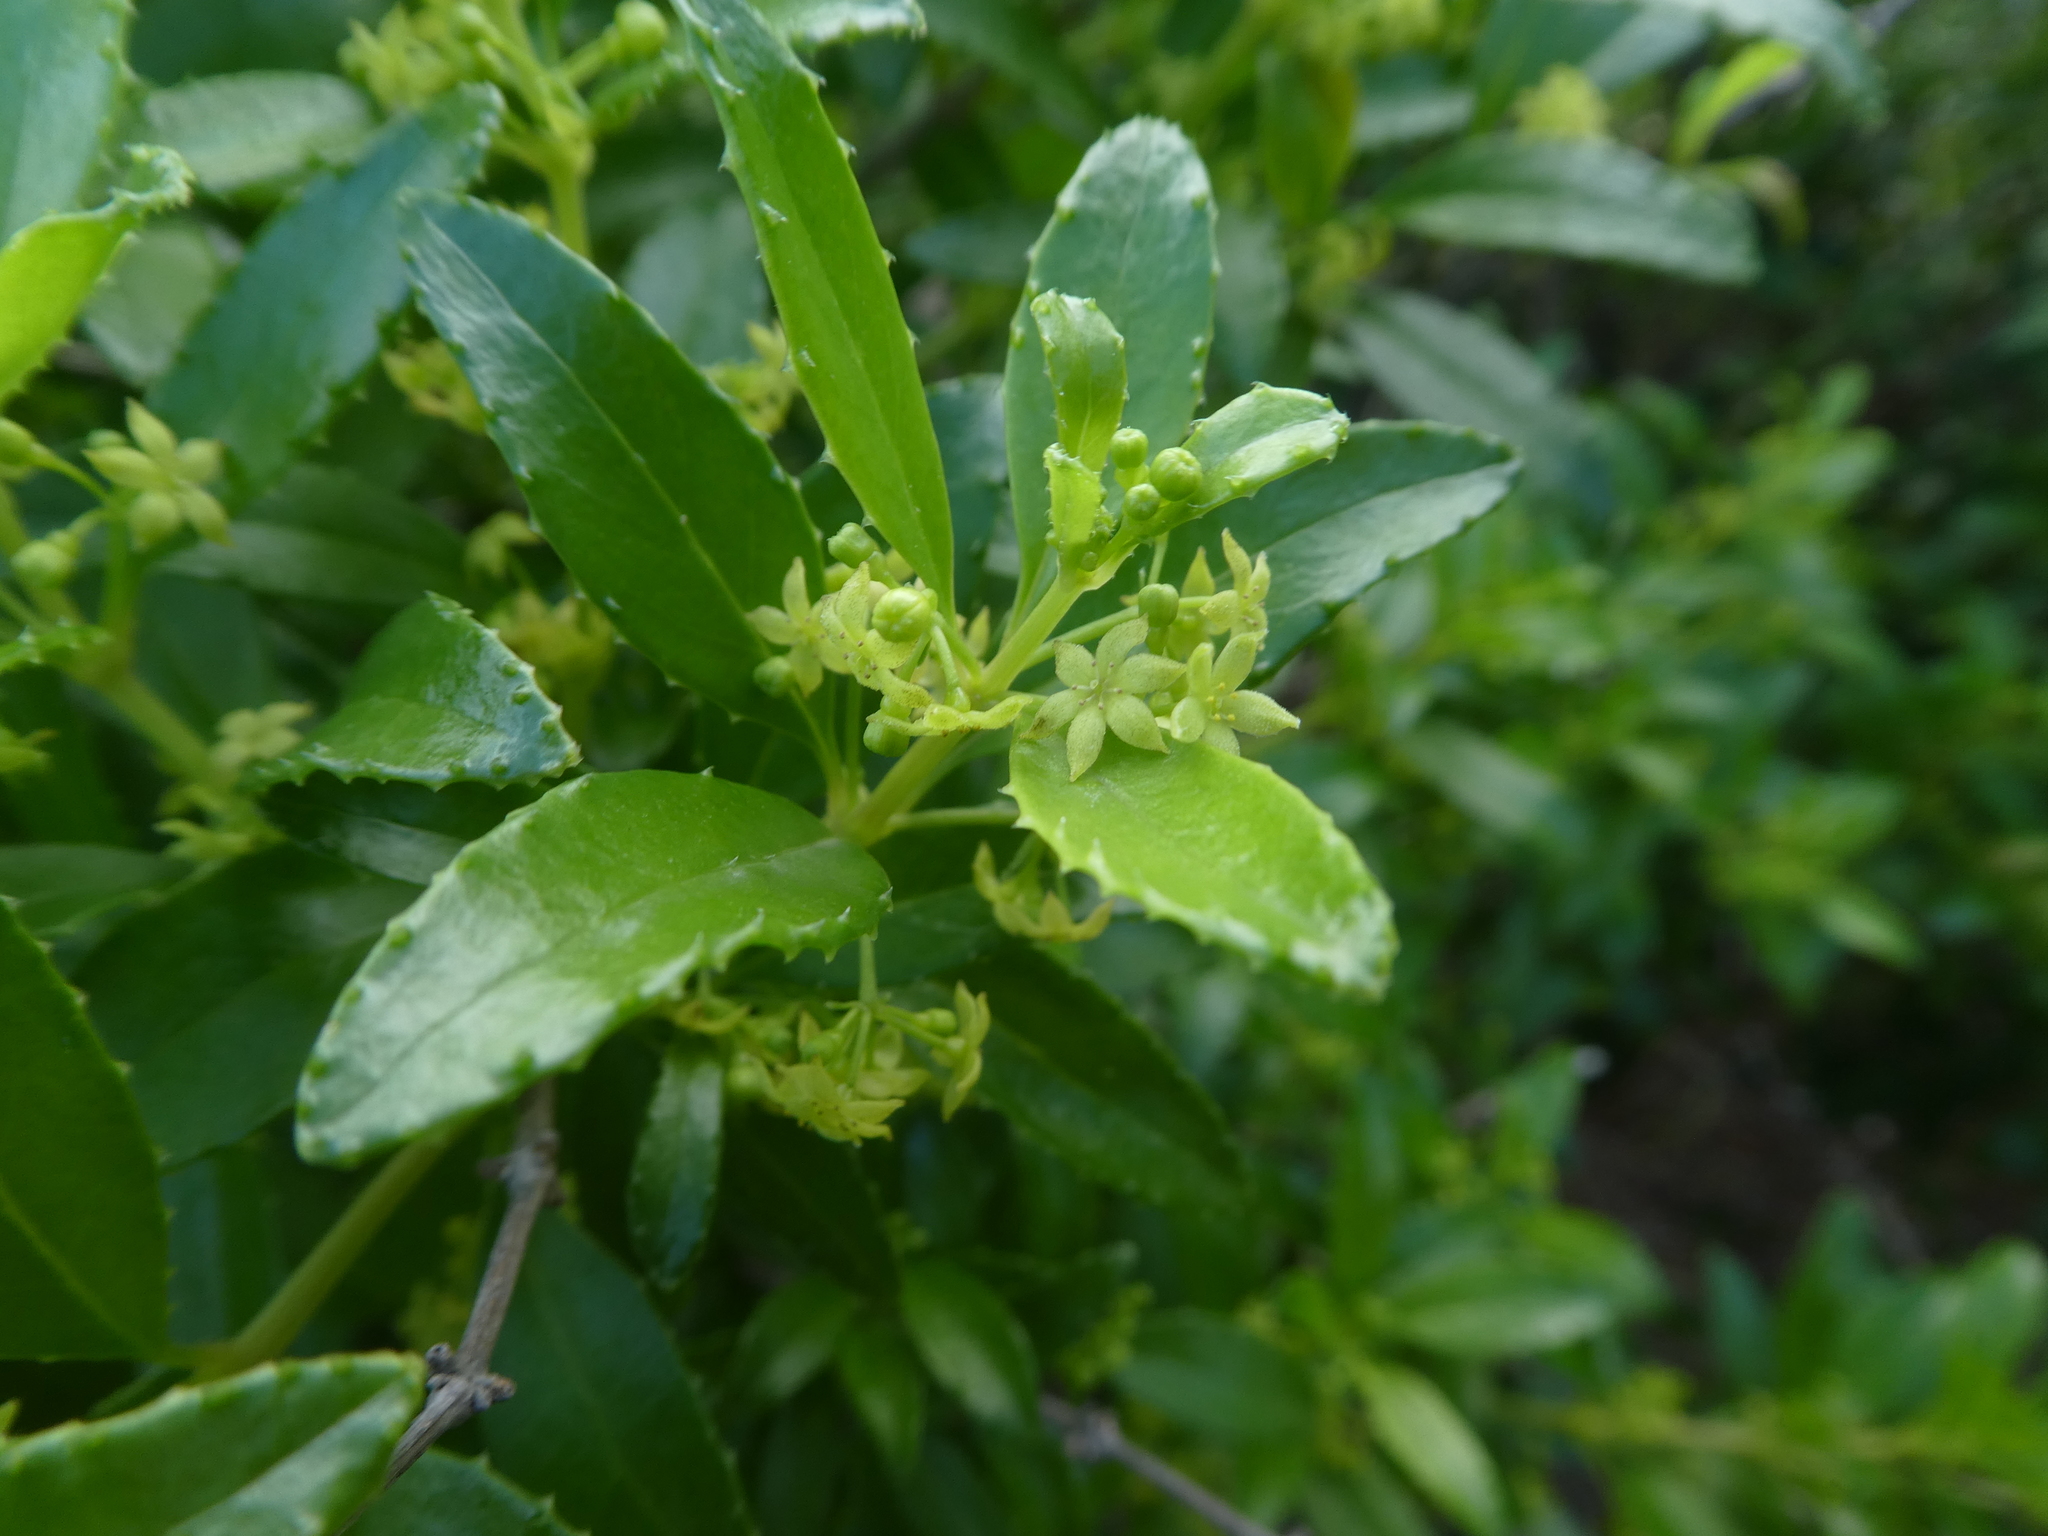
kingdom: Plantae
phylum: Tracheophyta
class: Magnoliopsida
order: Gentianales
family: Rubiaceae
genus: Rubia
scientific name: Rubia fruticosa
